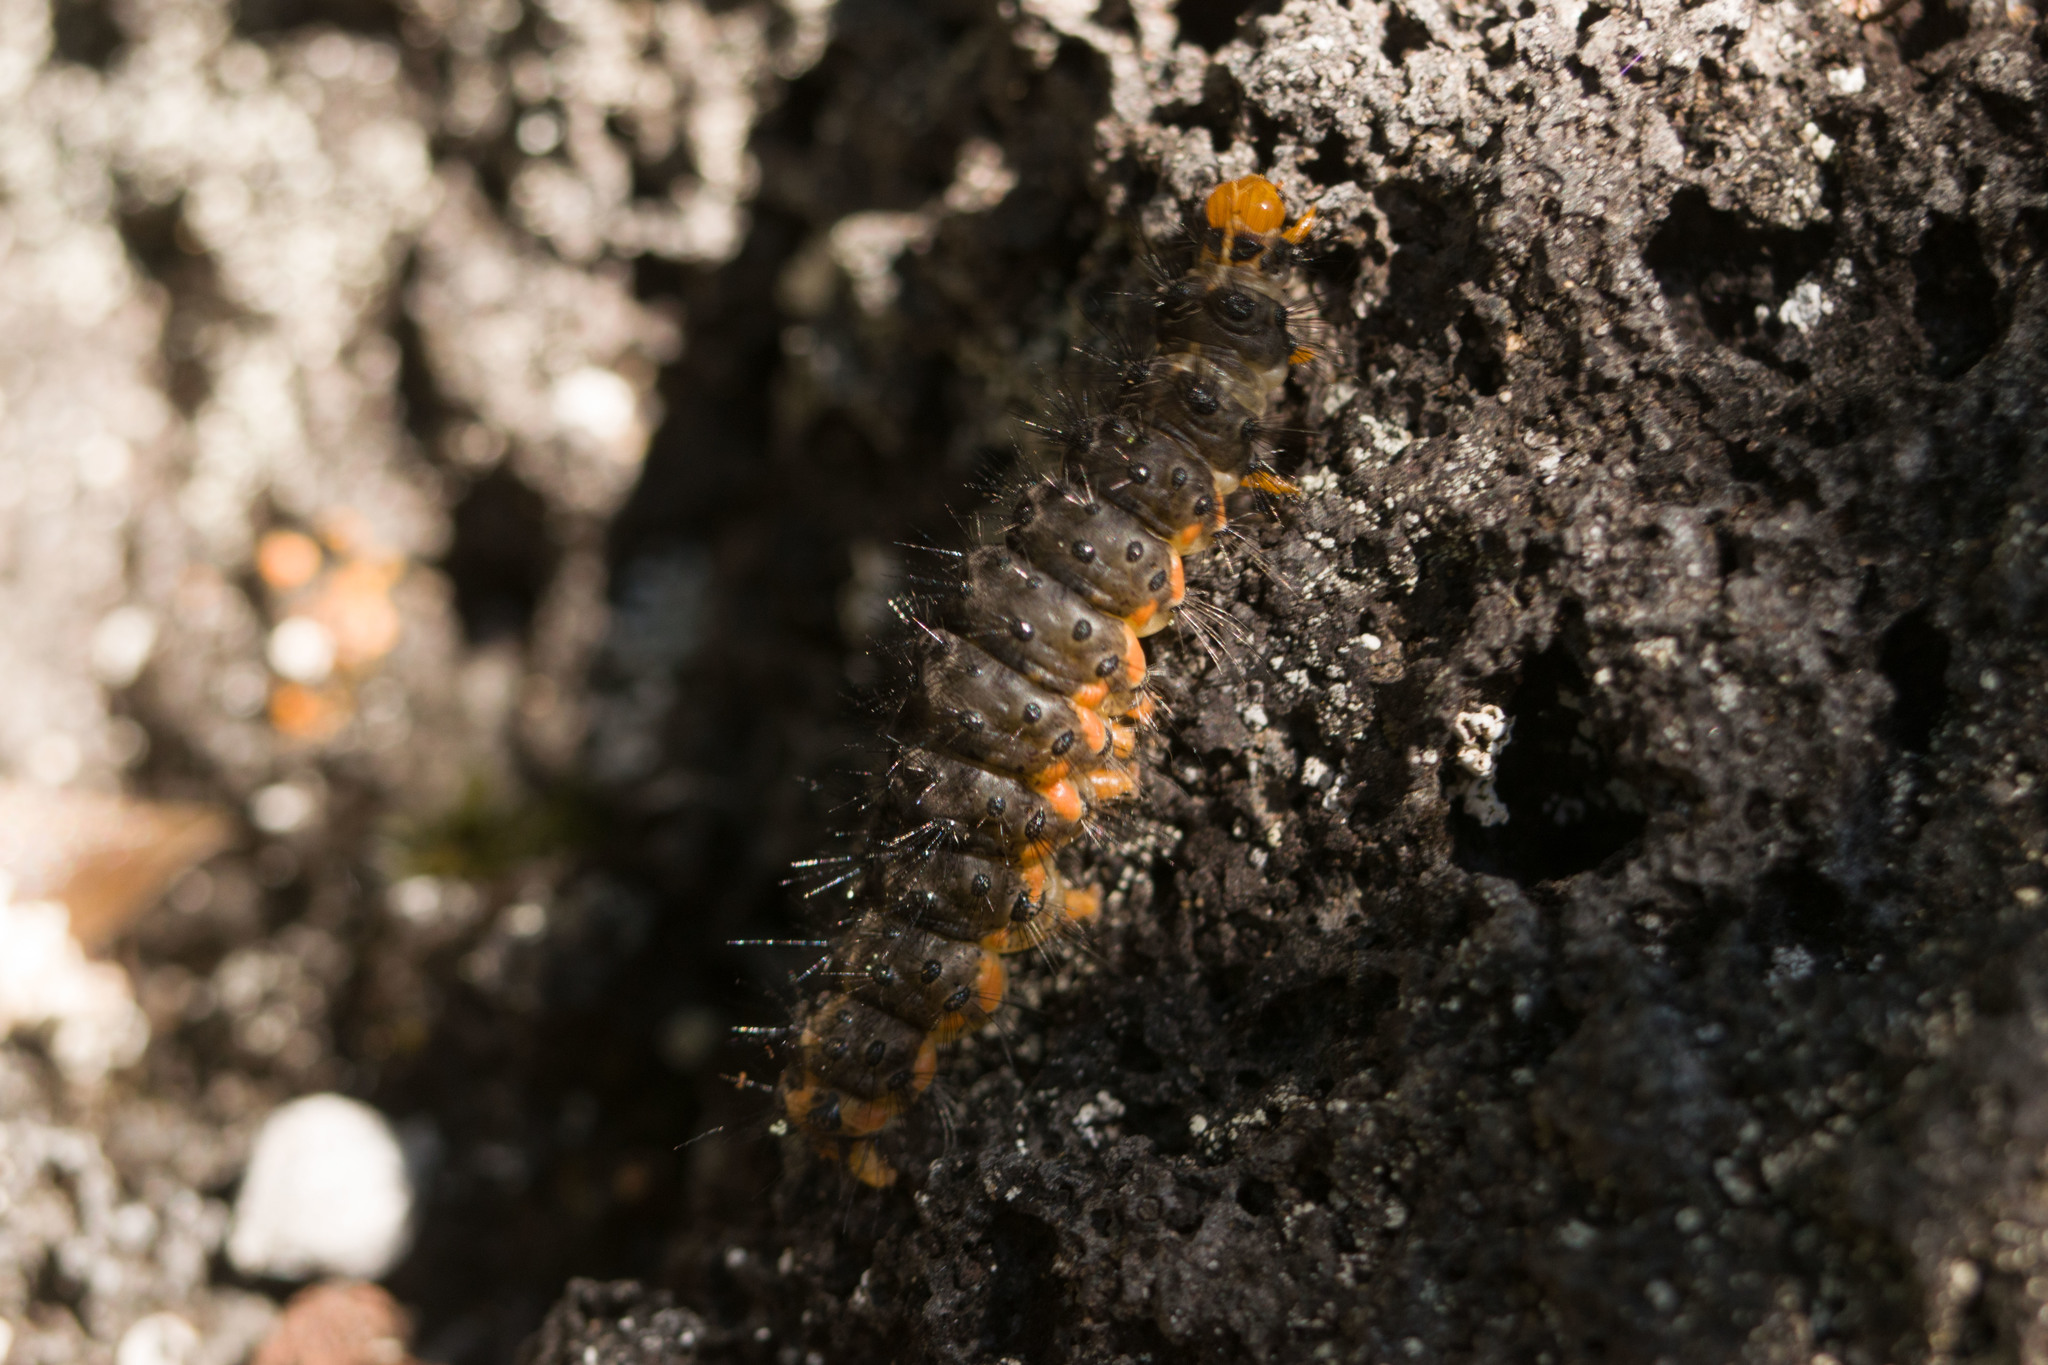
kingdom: Animalia
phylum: Arthropoda
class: Insecta
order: Lepidoptera
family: Erebidae
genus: Galtara
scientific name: Galtara extensa
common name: Madagascar moth
